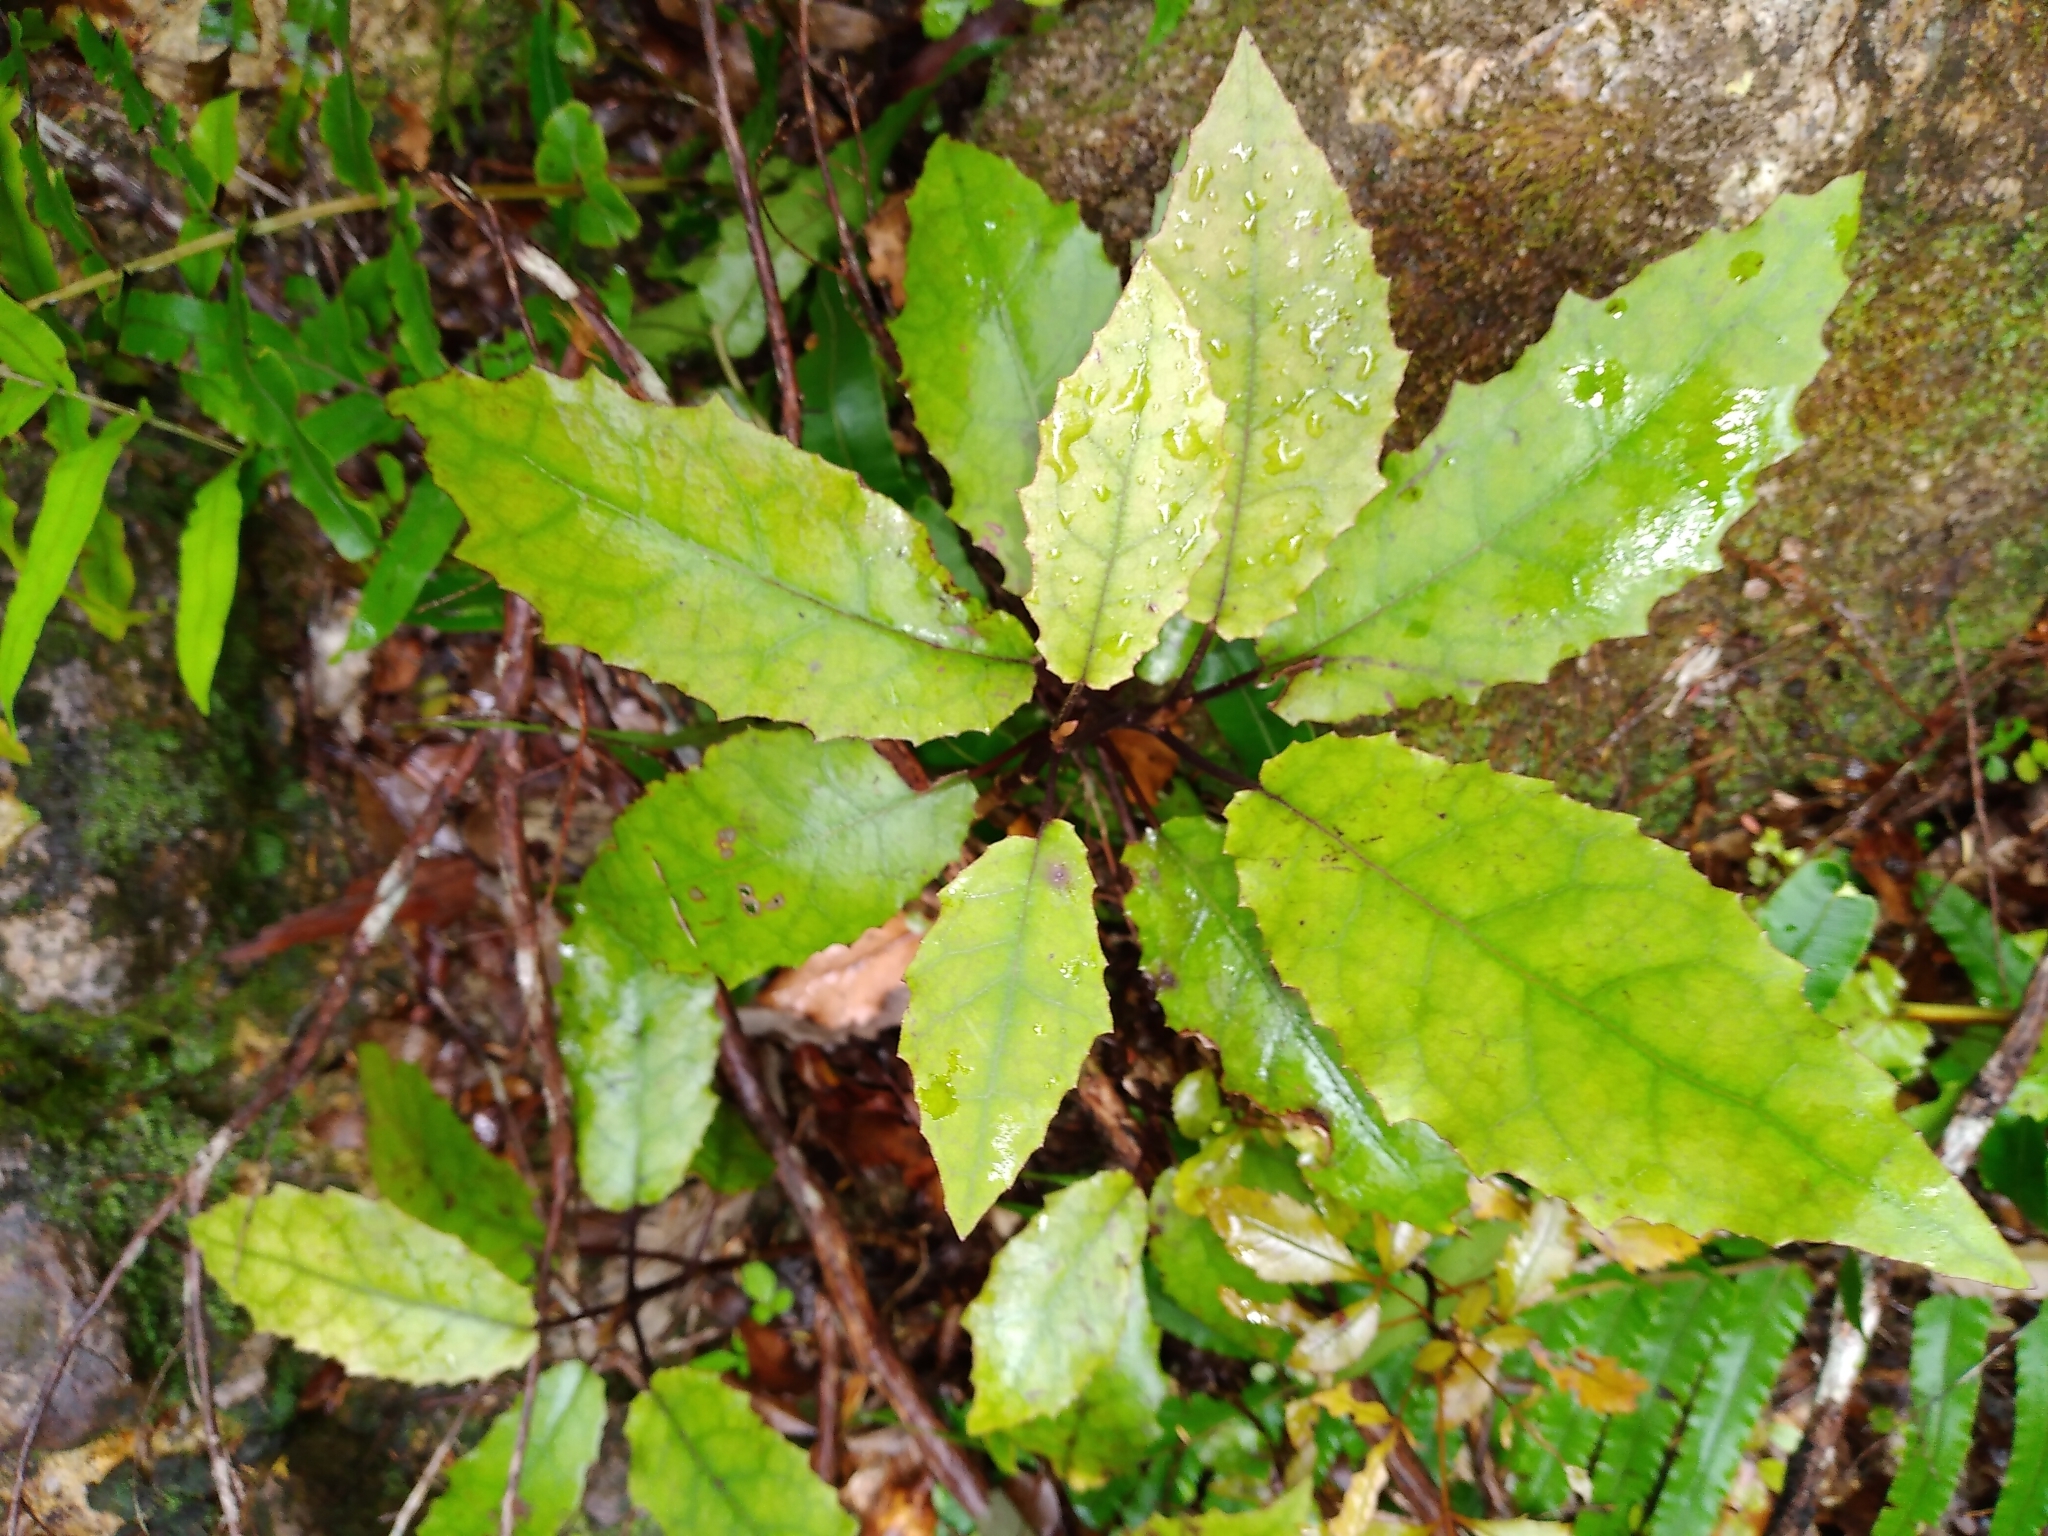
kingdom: Plantae
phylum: Tracheophyta
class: Magnoliopsida
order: Asterales
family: Asteraceae
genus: Brachyglottis
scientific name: Brachyglottis myrianthos
